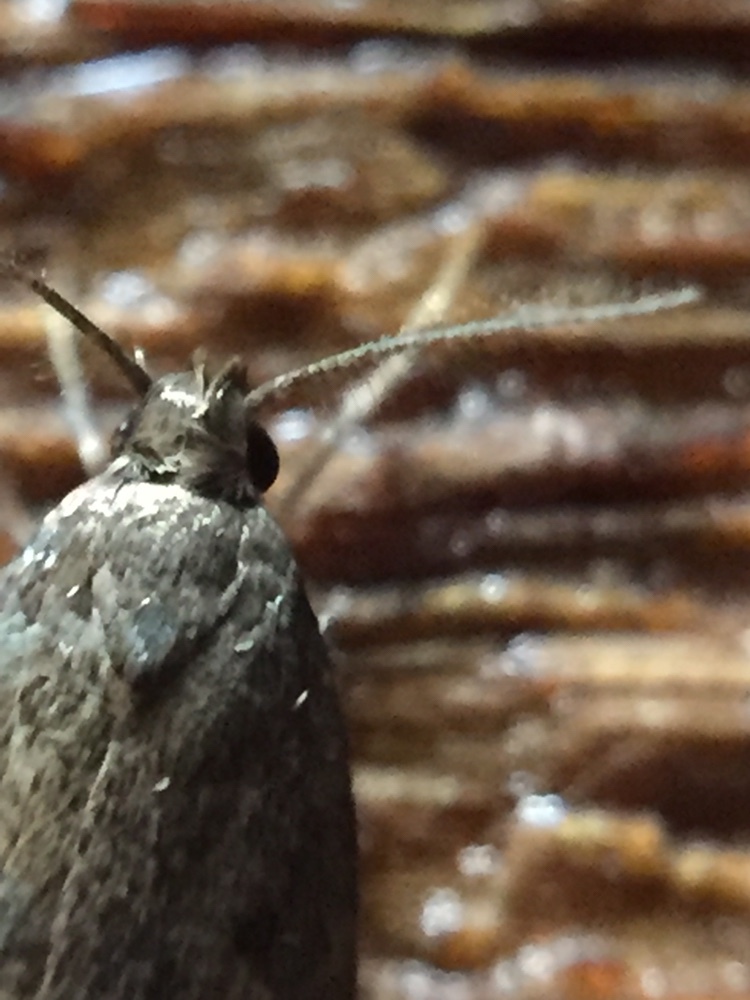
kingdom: Animalia
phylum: Arthropoda
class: Insecta
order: Lepidoptera
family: Oecophoridae
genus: Tachystola
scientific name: Tachystola acroxantha
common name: Ruddy streak
